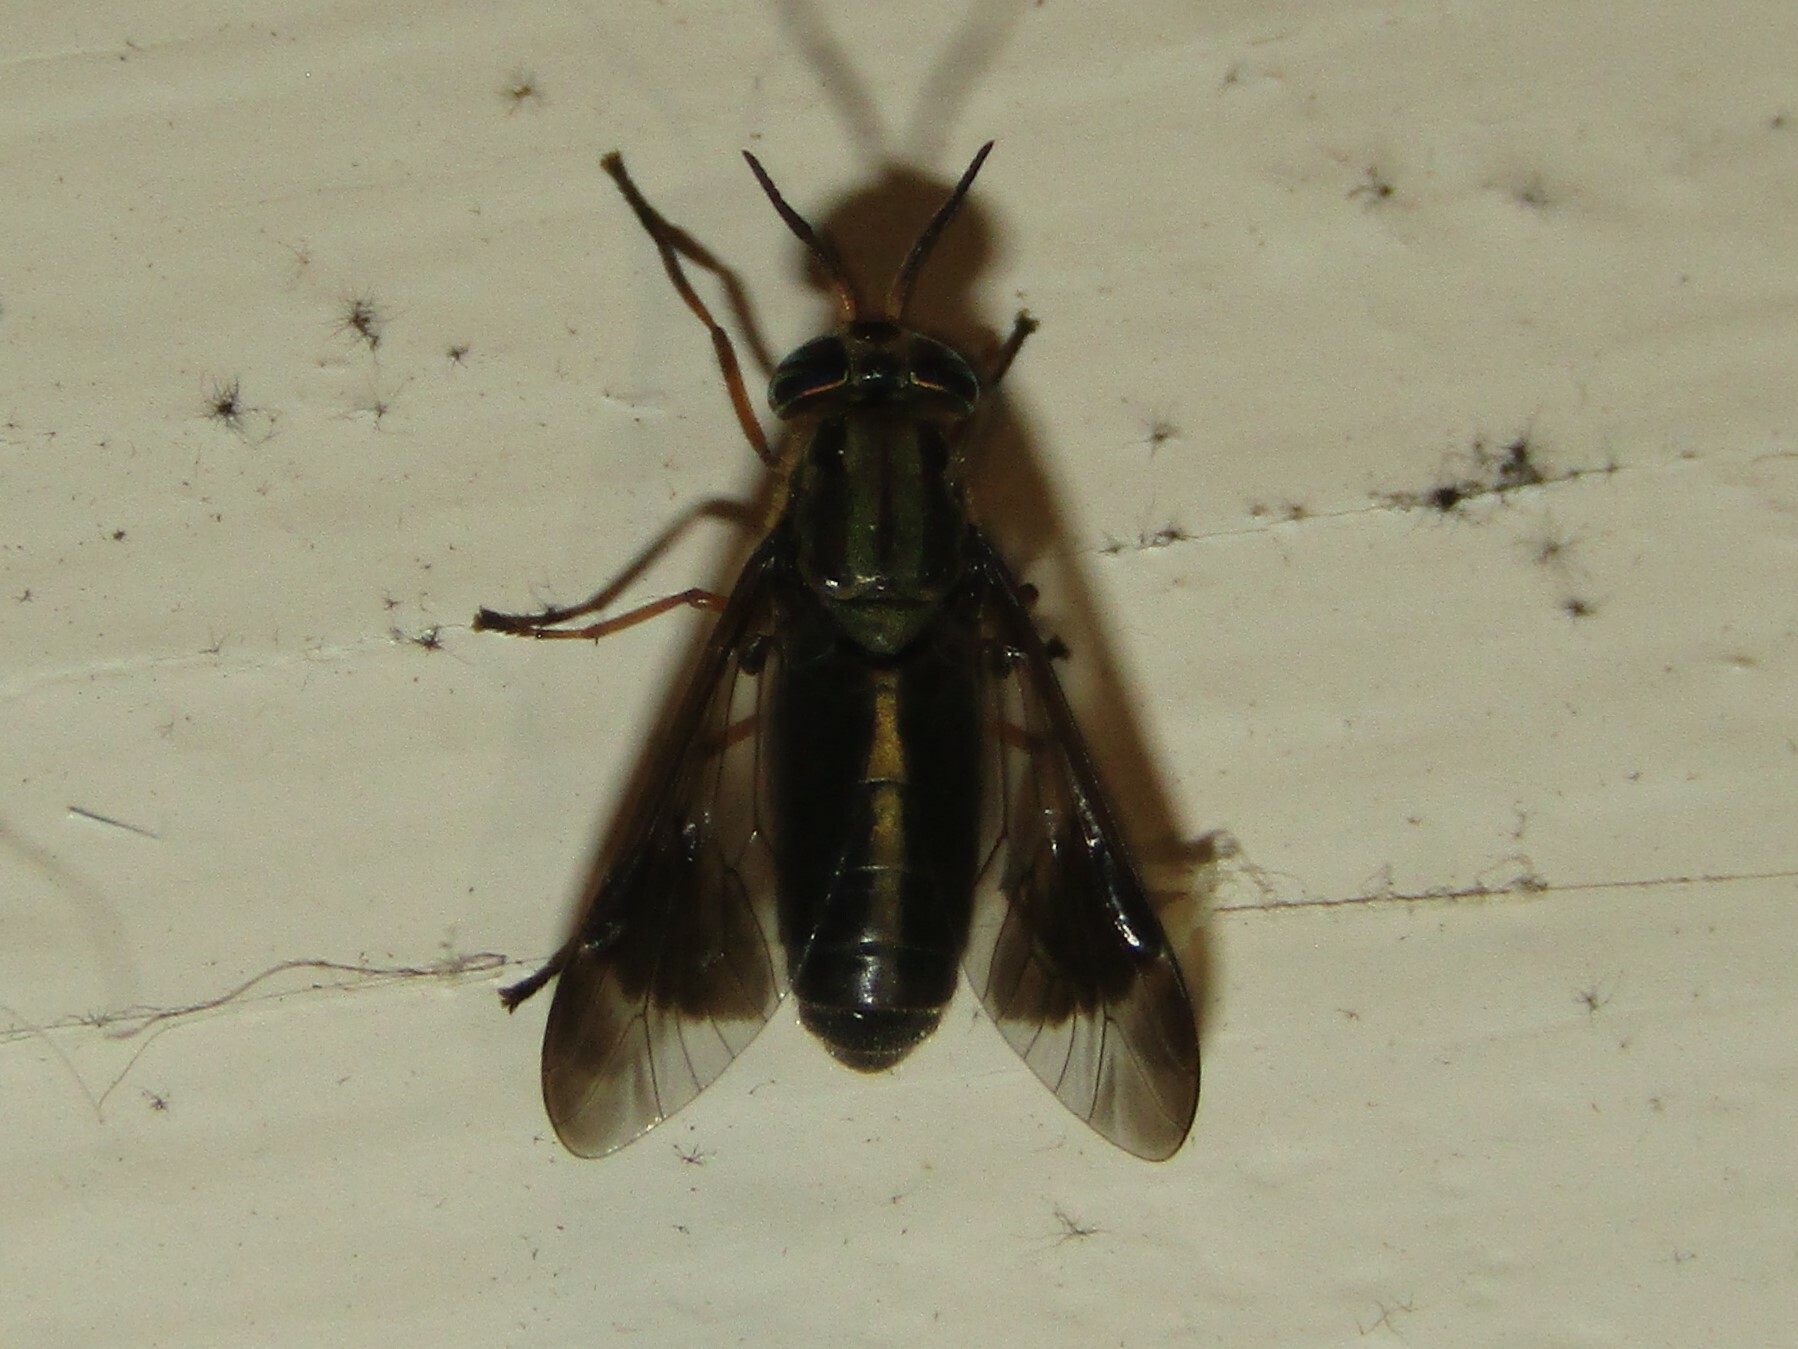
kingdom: Animalia
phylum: Arthropoda
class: Insecta
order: Diptera
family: Tabanidae
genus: Chrysops
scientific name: Chrysops univittatus
